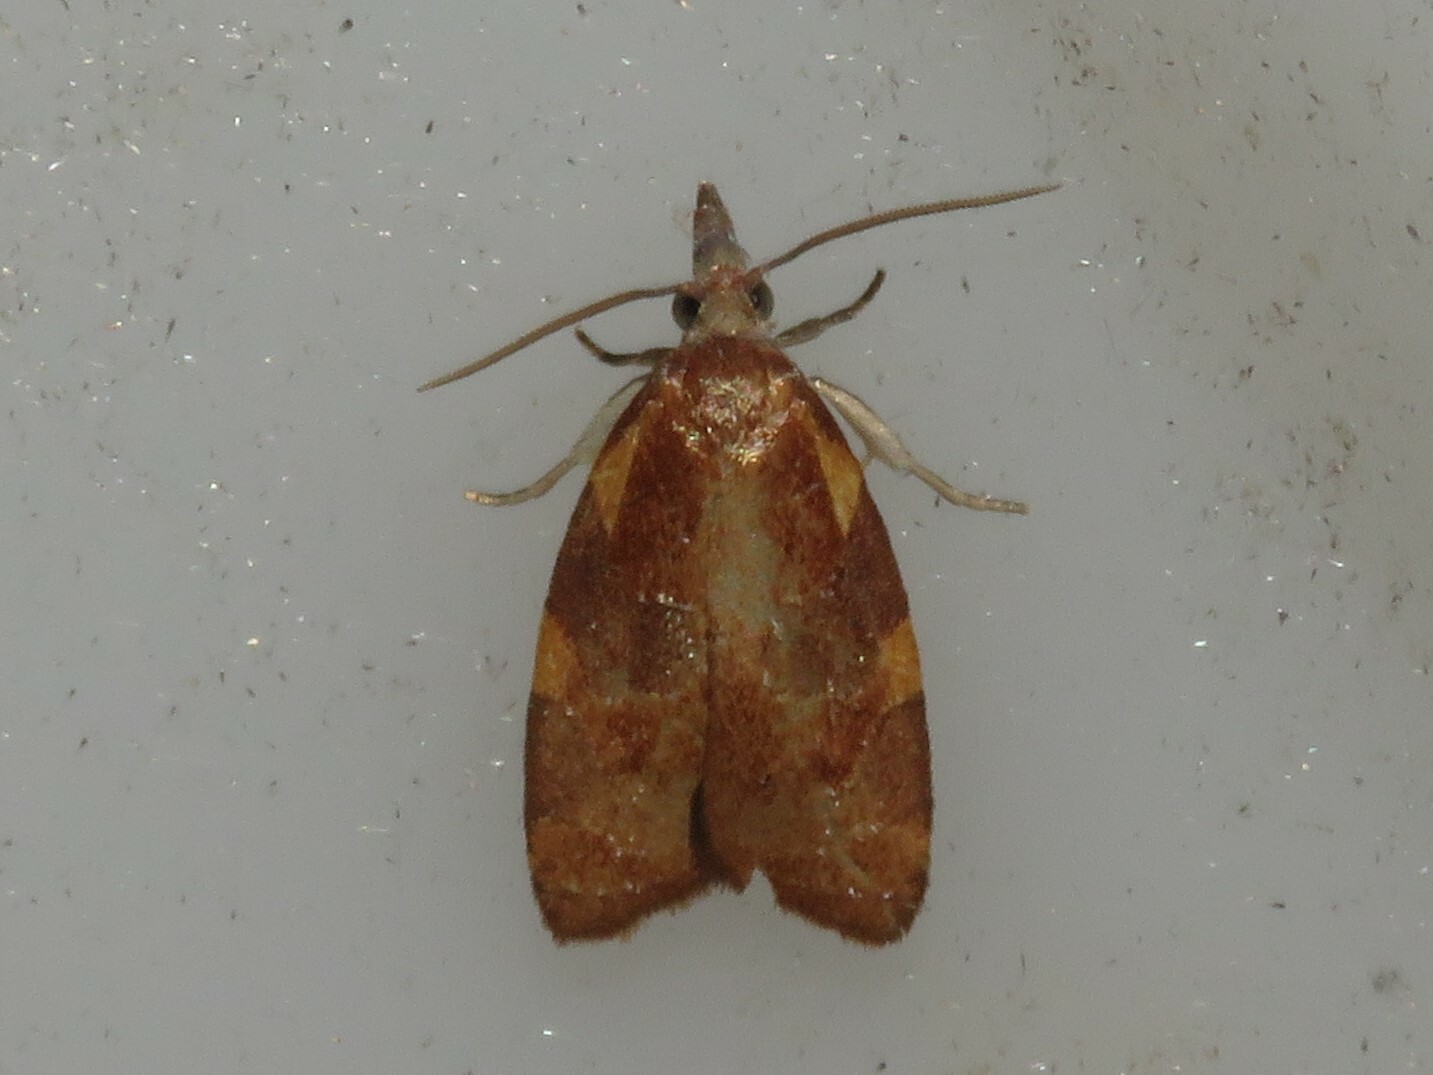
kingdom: Animalia
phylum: Arthropoda
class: Insecta
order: Lepidoptera
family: Tortricidae
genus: Cenopis
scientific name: Cenopis diluticostana
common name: Spring dead-leaf roller moth
